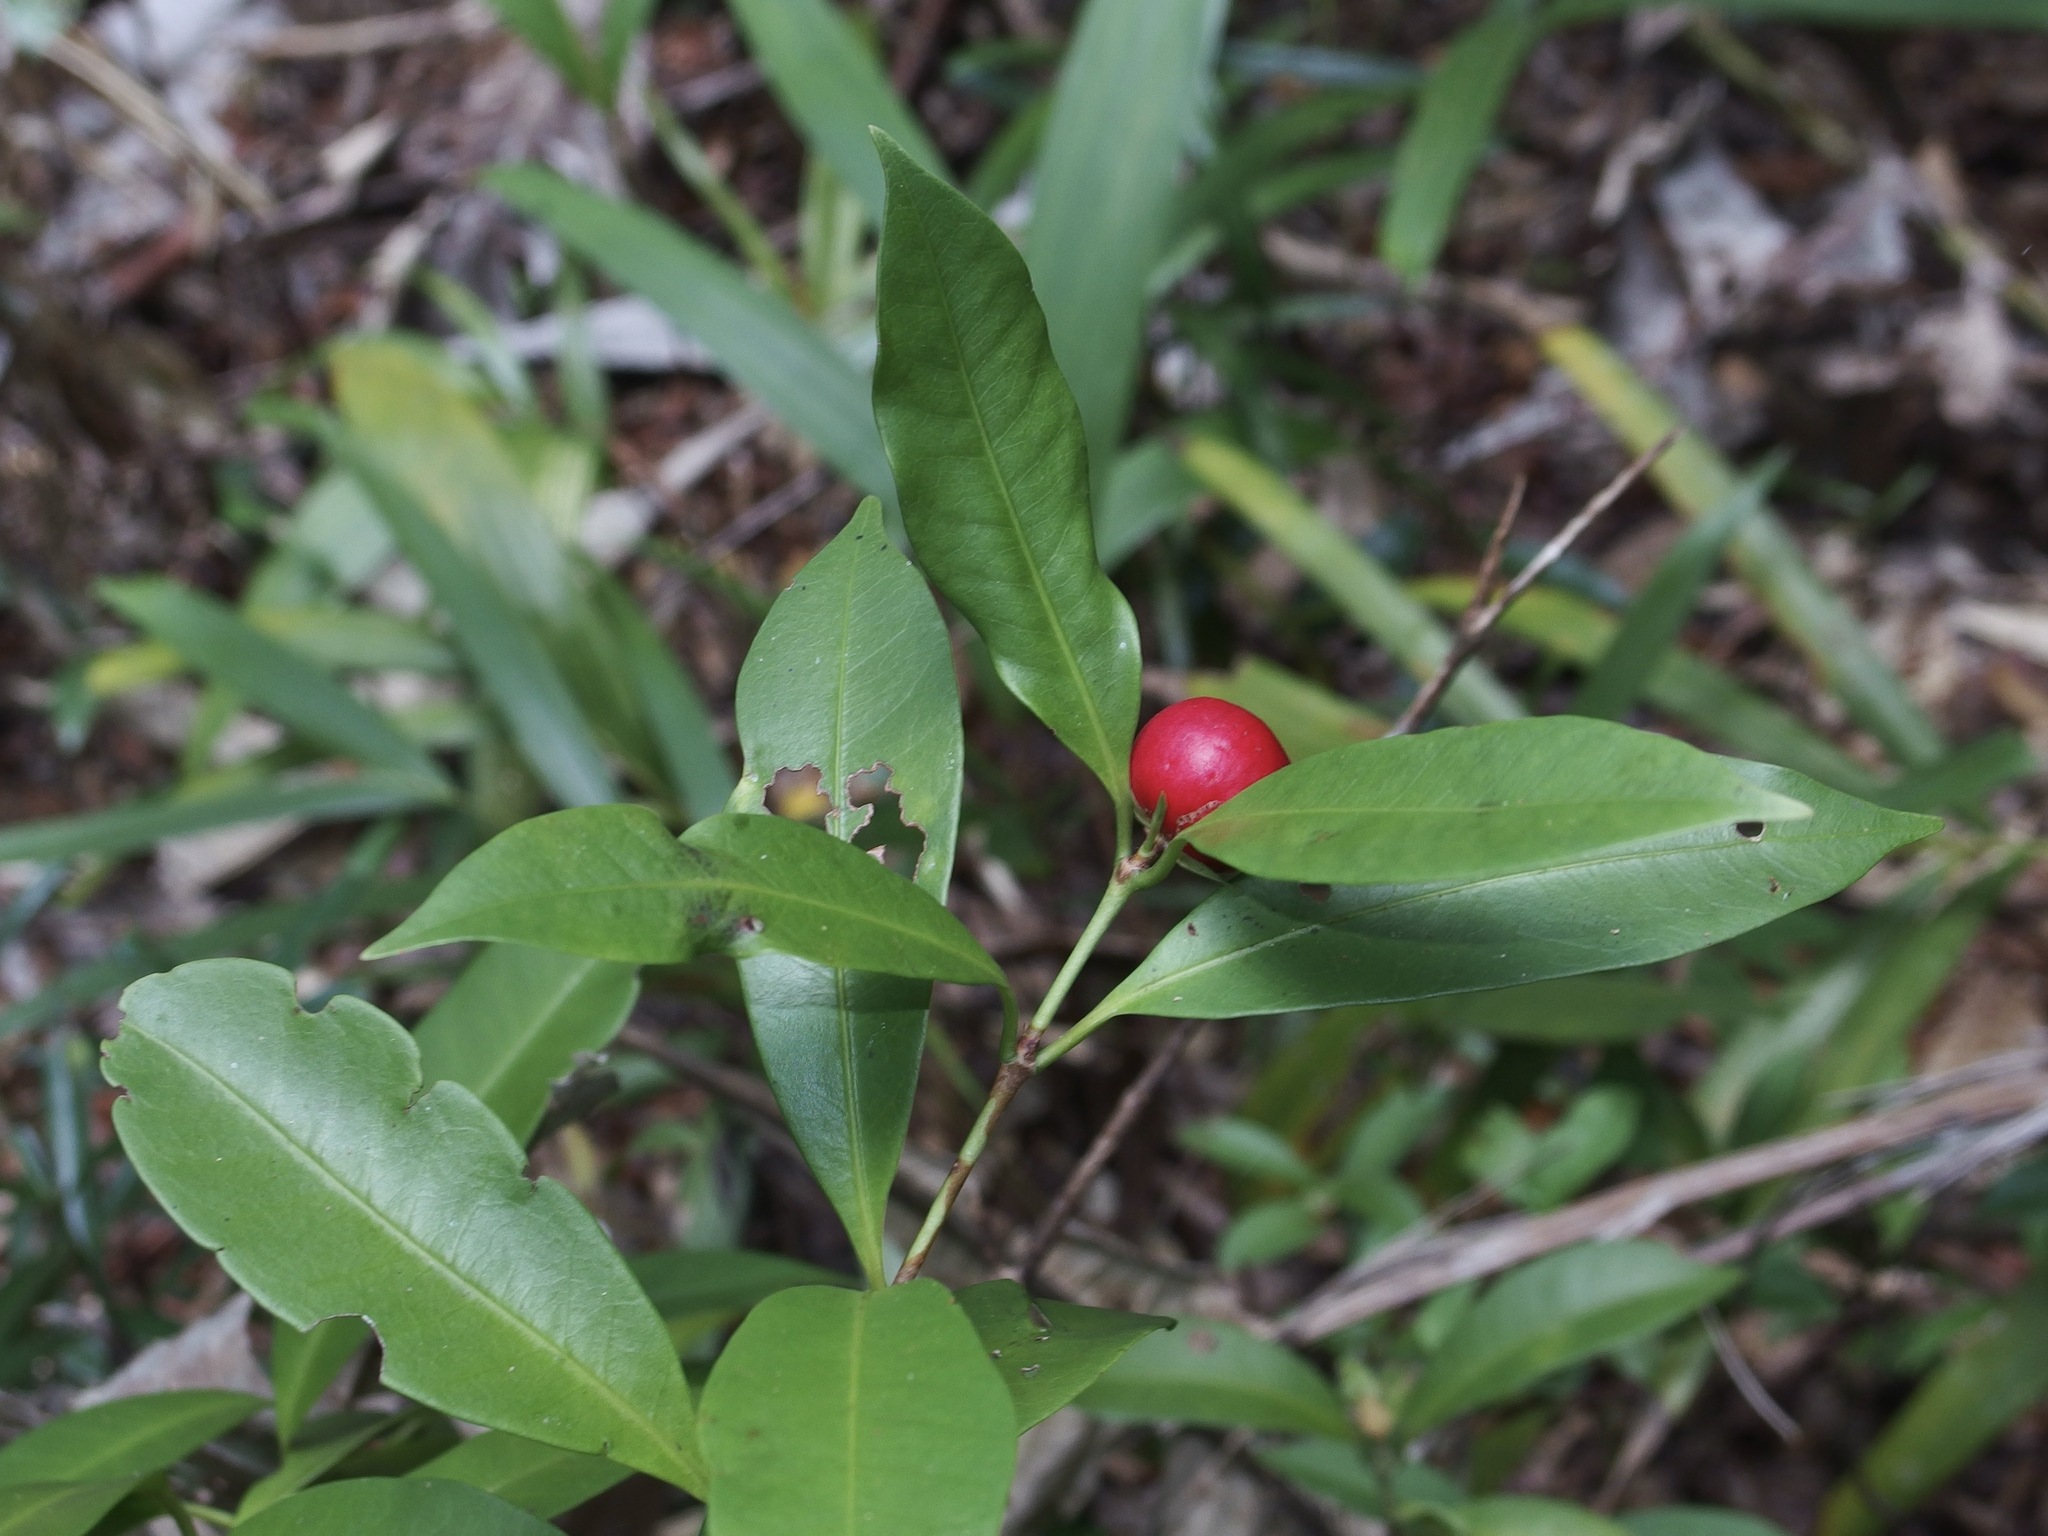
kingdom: Plantae
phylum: Tracheophyta
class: Magnoliopsida
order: Gentianales
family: Rubiaceae
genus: Ixora
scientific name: Ixora biflora
